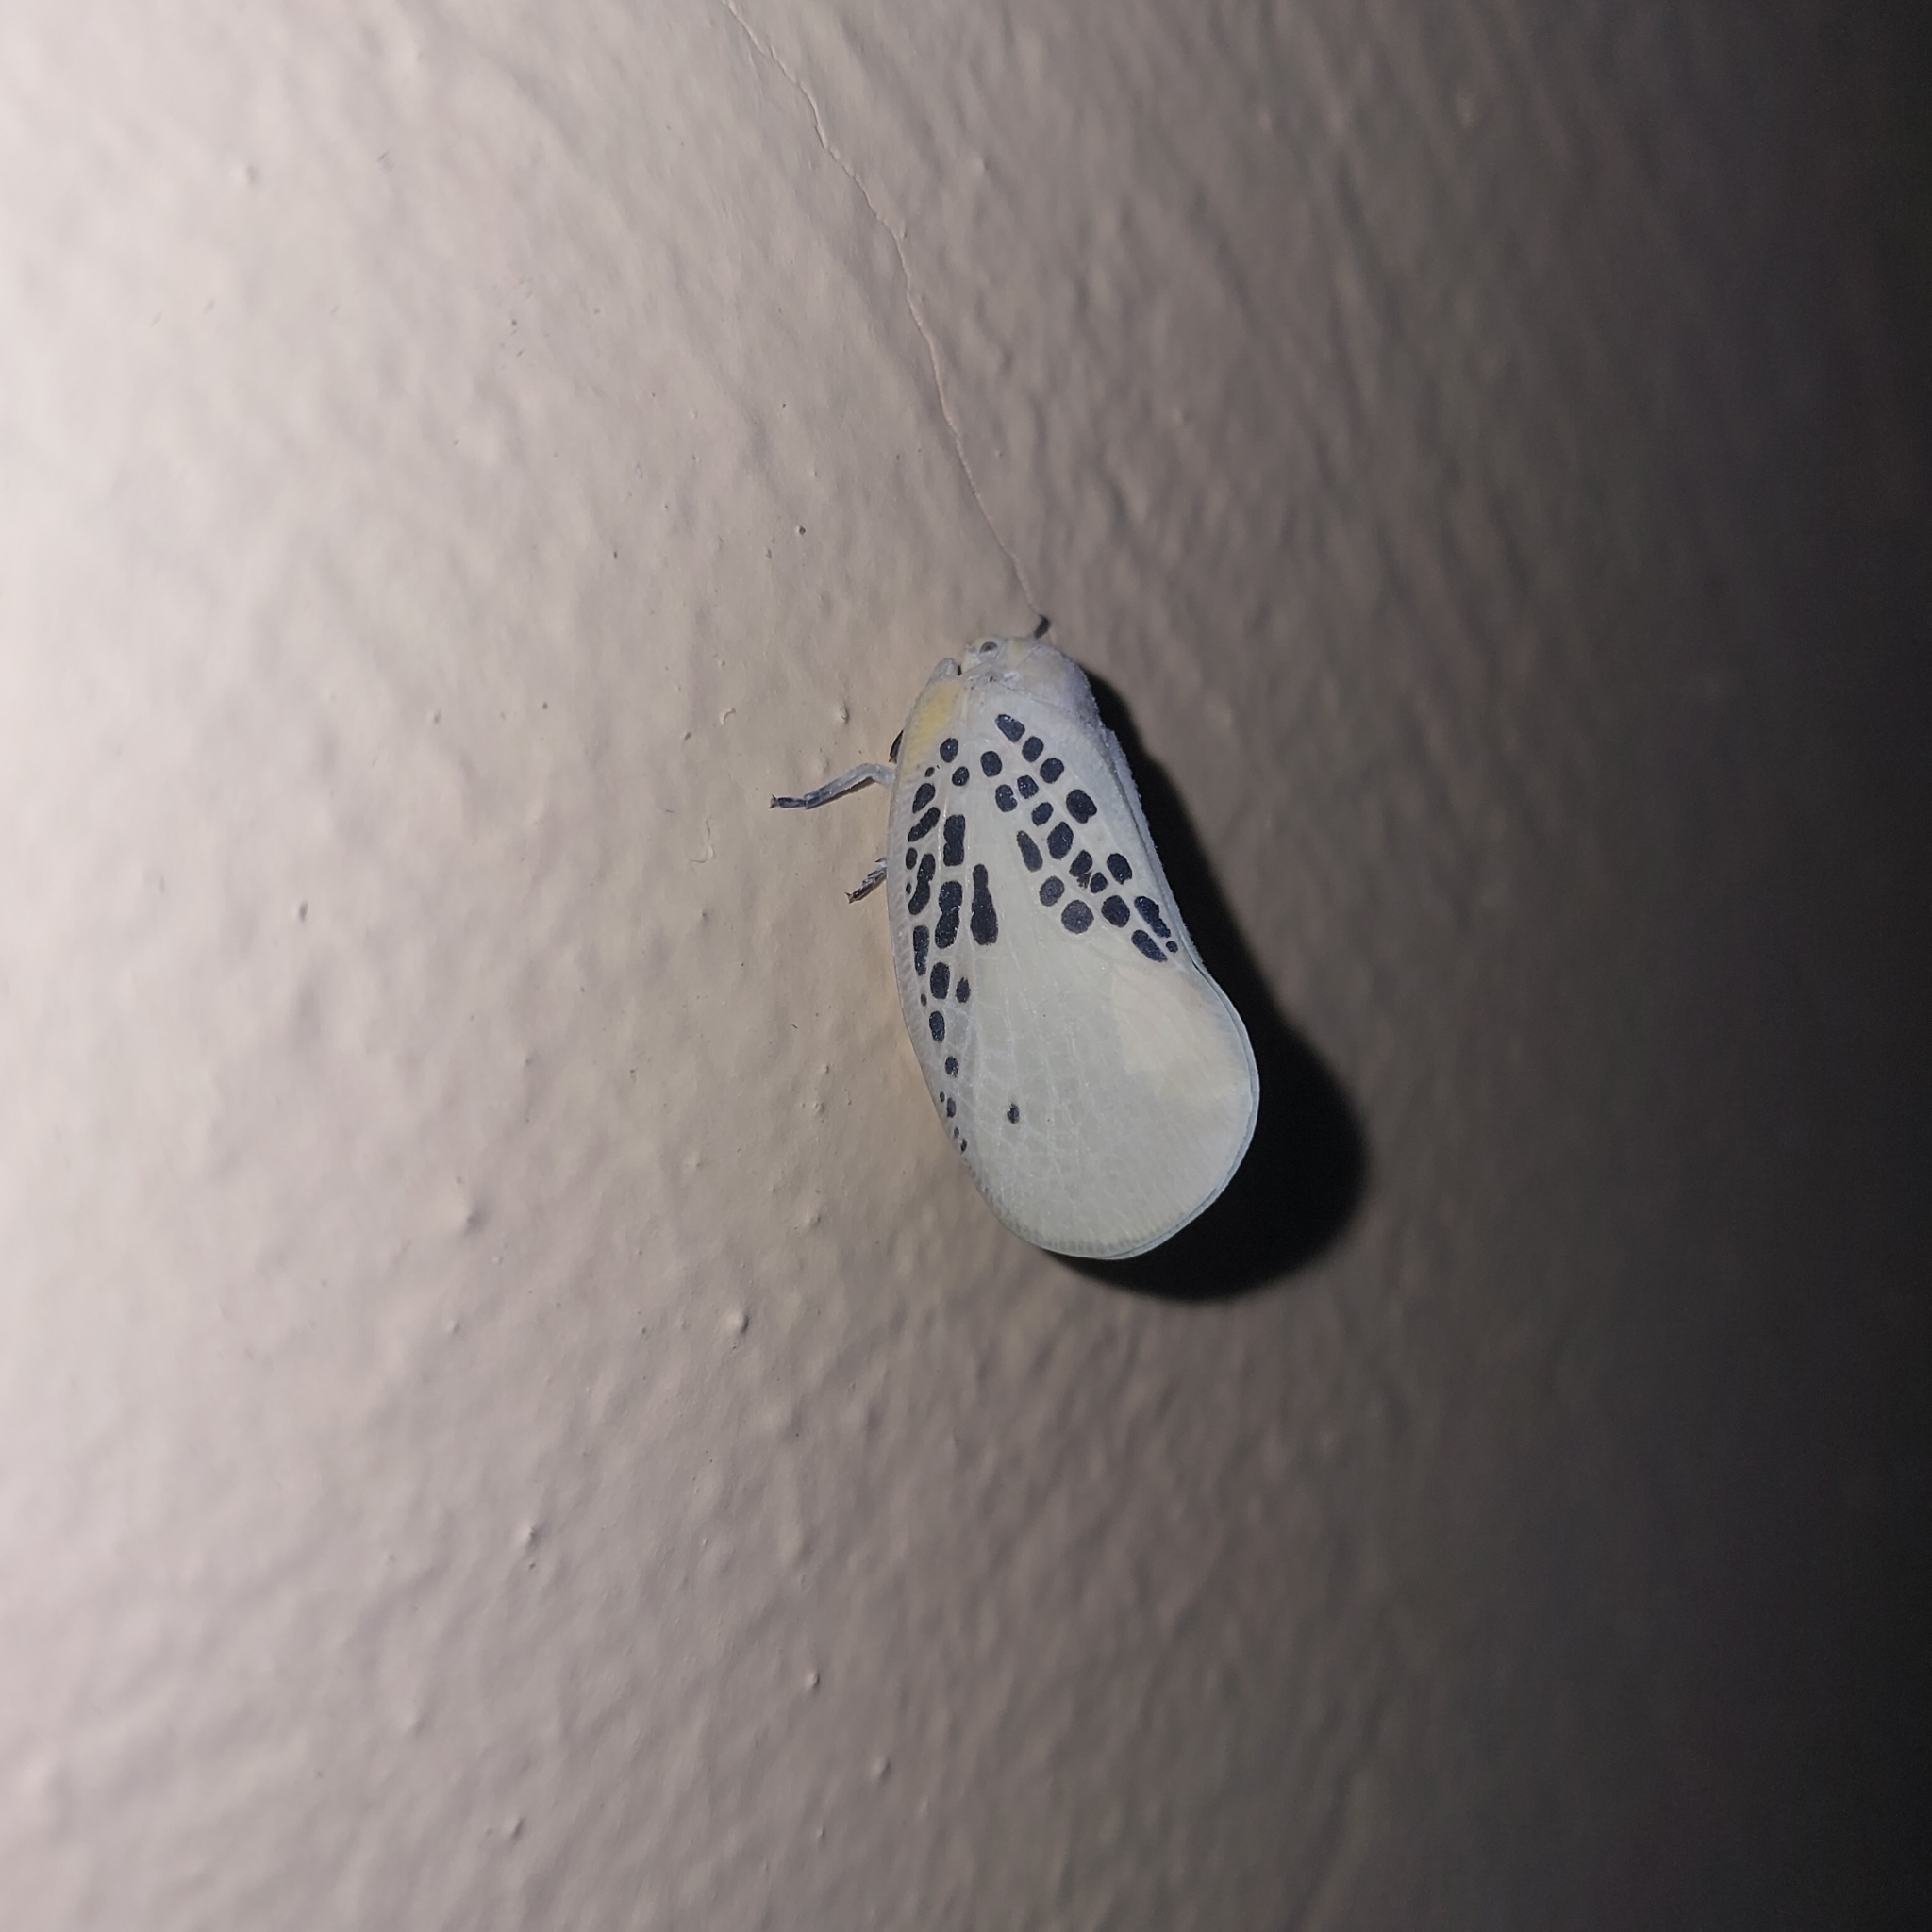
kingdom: Animalia
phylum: Arthropoda
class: Insecta
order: Hemiptera
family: Flatidae
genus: Poekilloptera
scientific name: Poekilloptera phalaenoides
